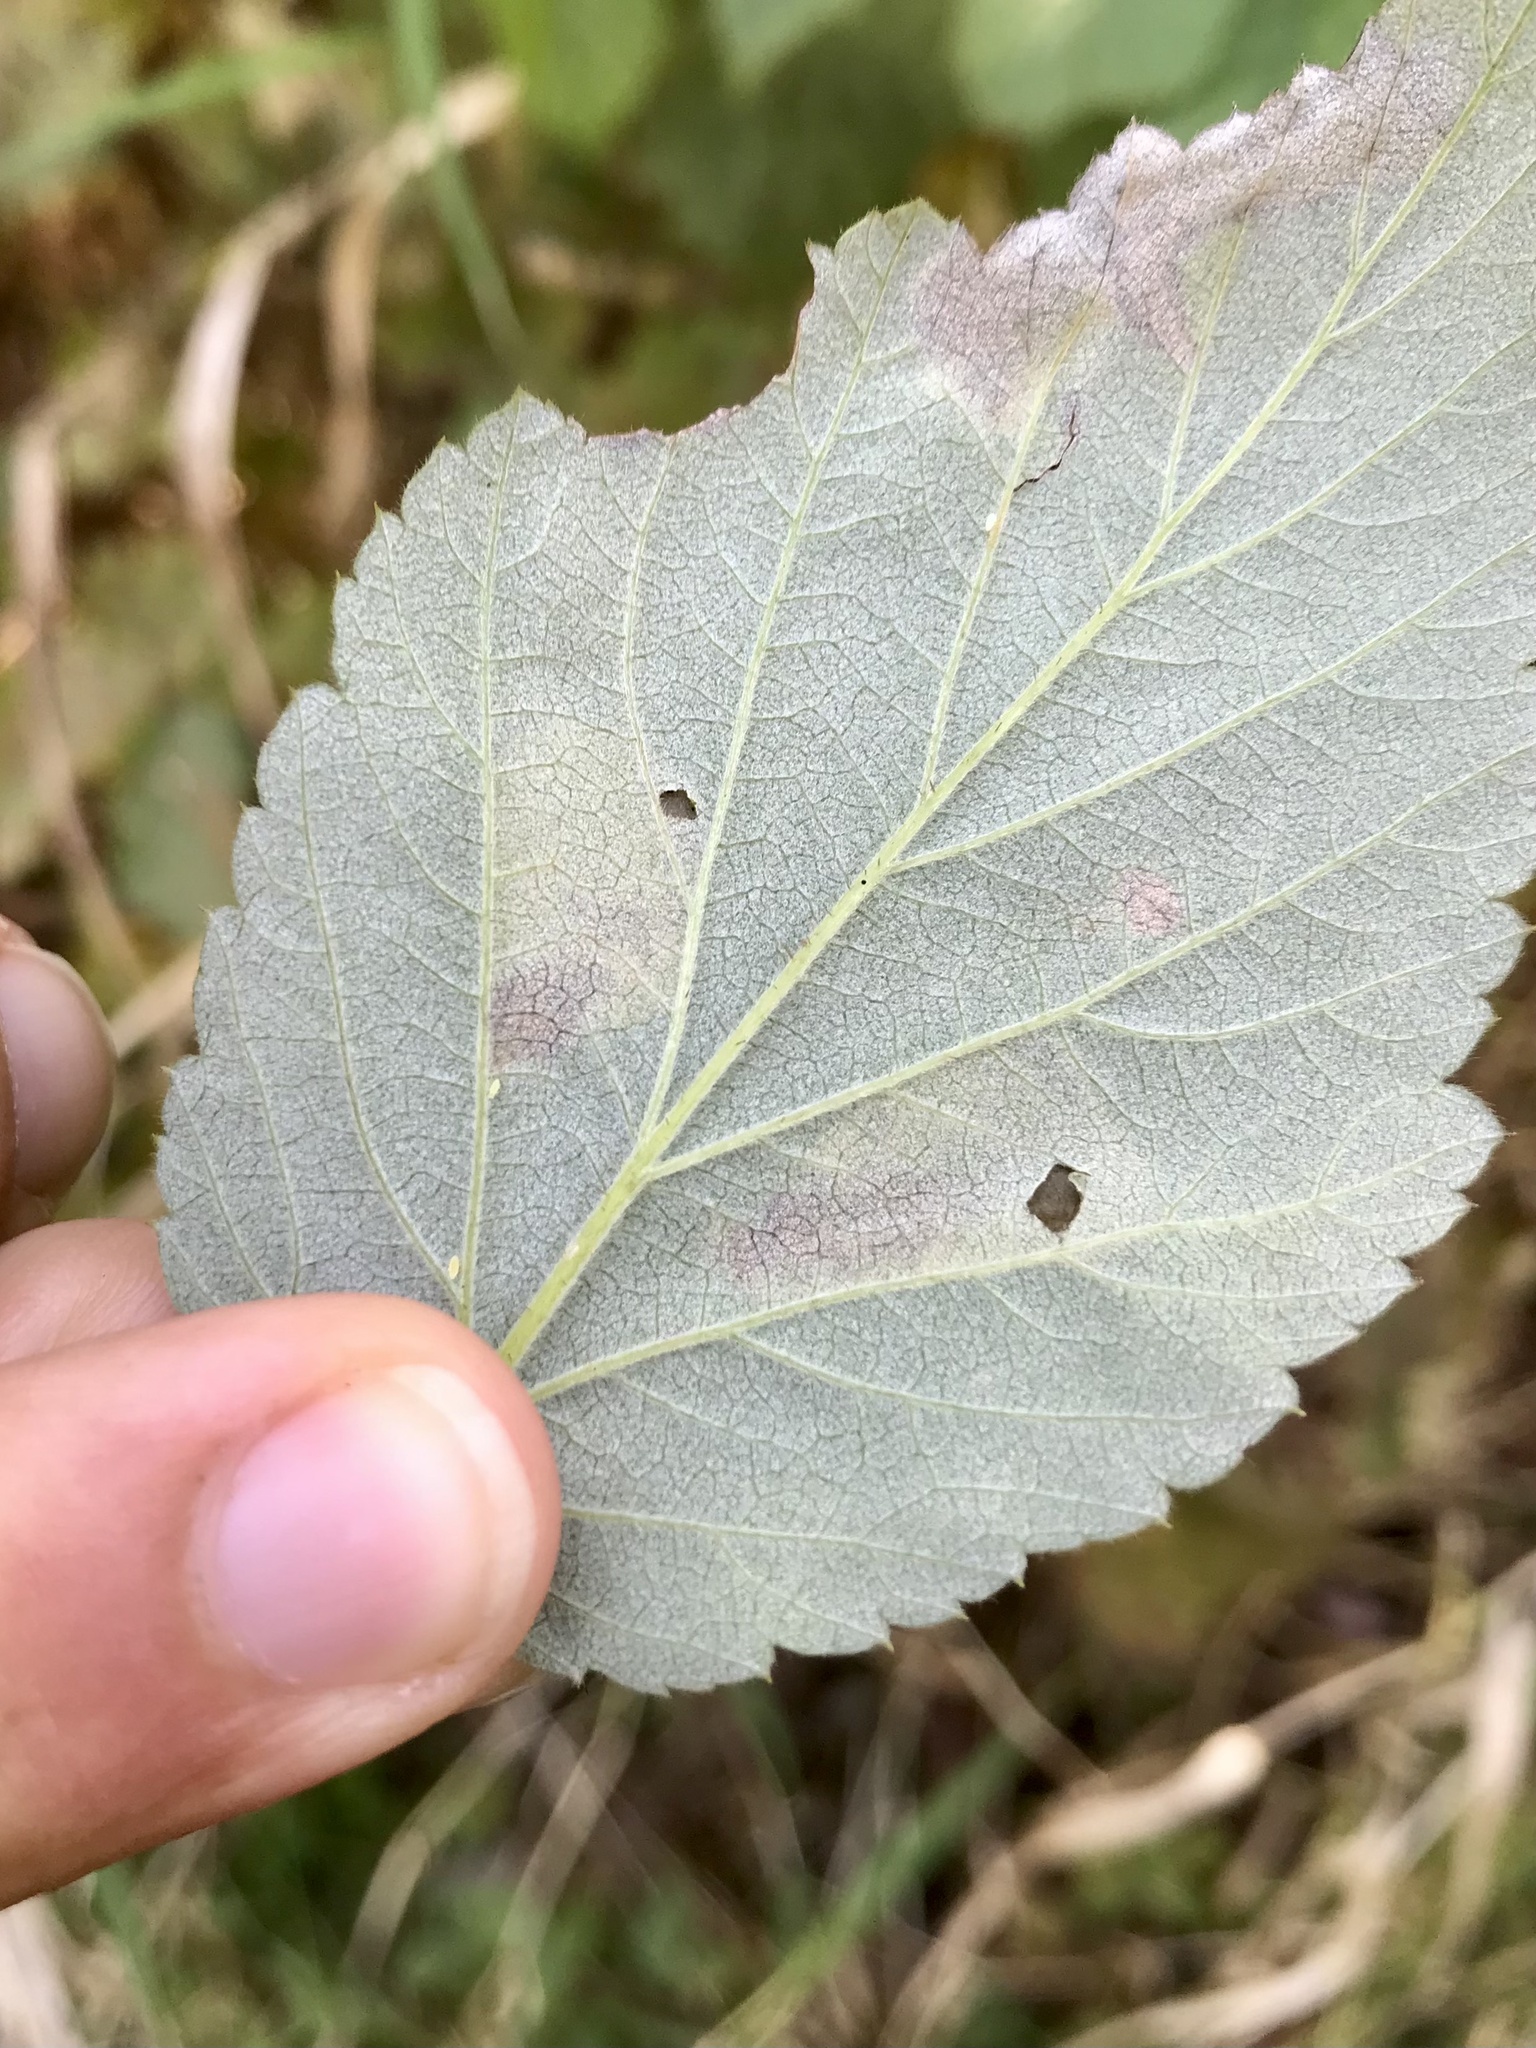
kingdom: Animalia
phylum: Arthropoda
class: Insecta
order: Hymenoptera
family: Tenthredinidae
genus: Metallus
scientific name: Metallus capitalis
